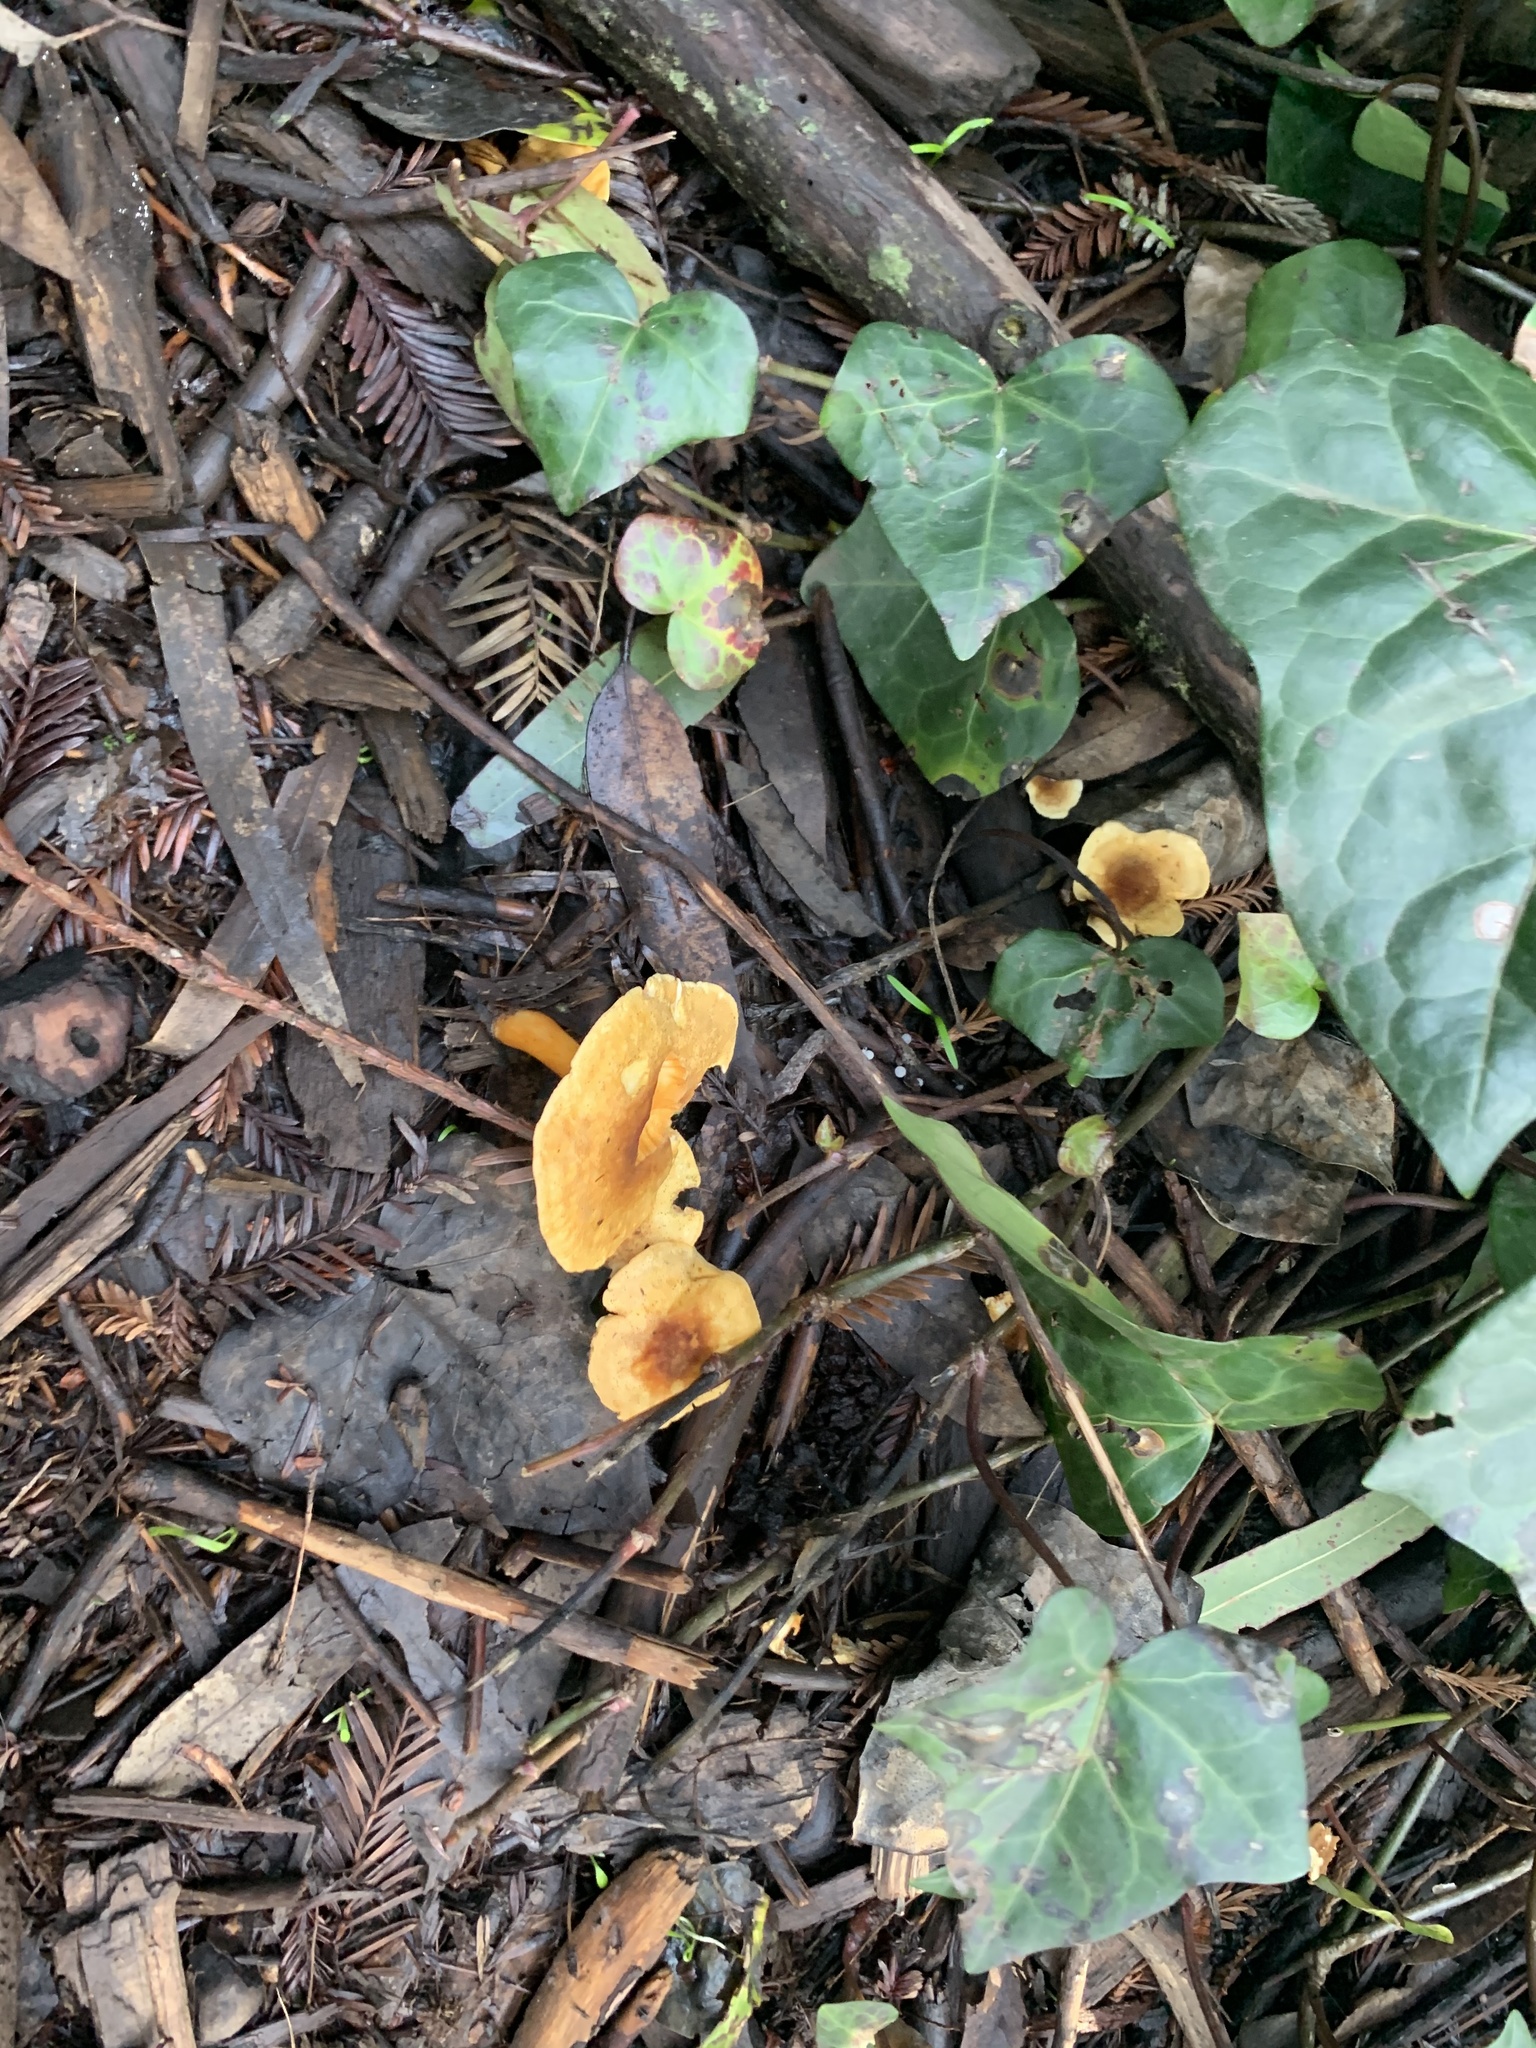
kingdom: Fungi
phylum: Basidiomycota
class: Agaricomycetes
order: Boletales
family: Hygrophoropsidaceae
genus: Hygrophoropsis
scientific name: Hygrophoropsis aurantiaca
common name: False chanterelle
